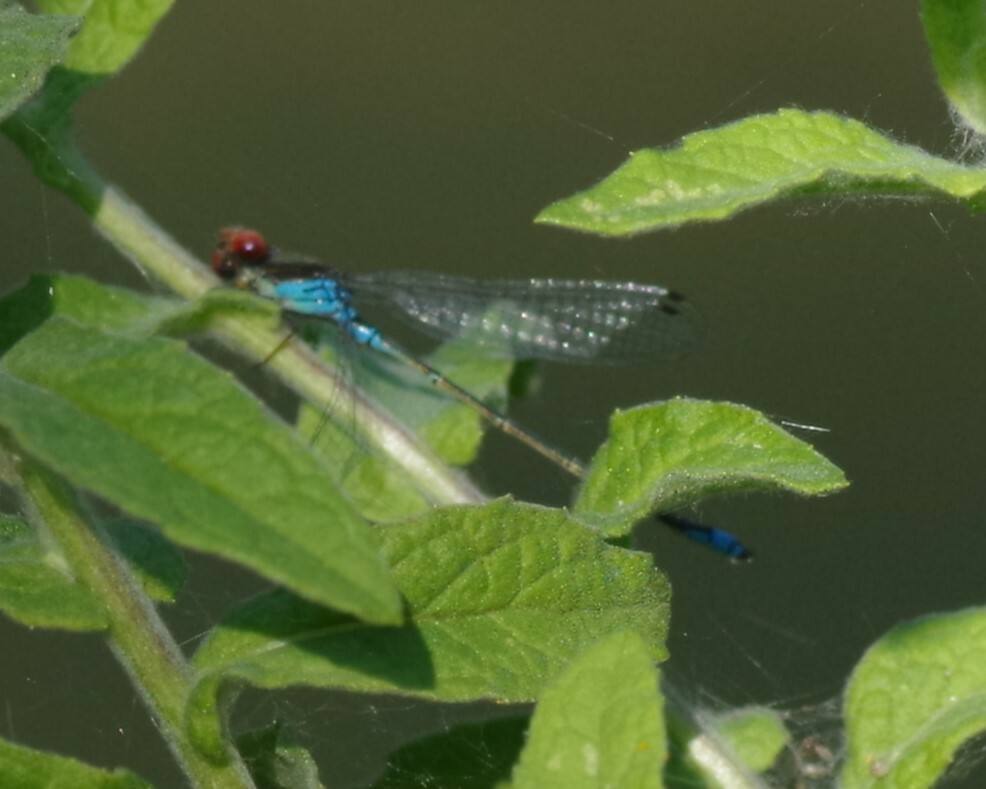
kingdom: Animalia
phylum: Arthropoda
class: Insecta
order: Odonata
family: Coenagrionidae
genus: Erythromma
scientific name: Erythromma viridulum
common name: Small red-eyed damselfly
